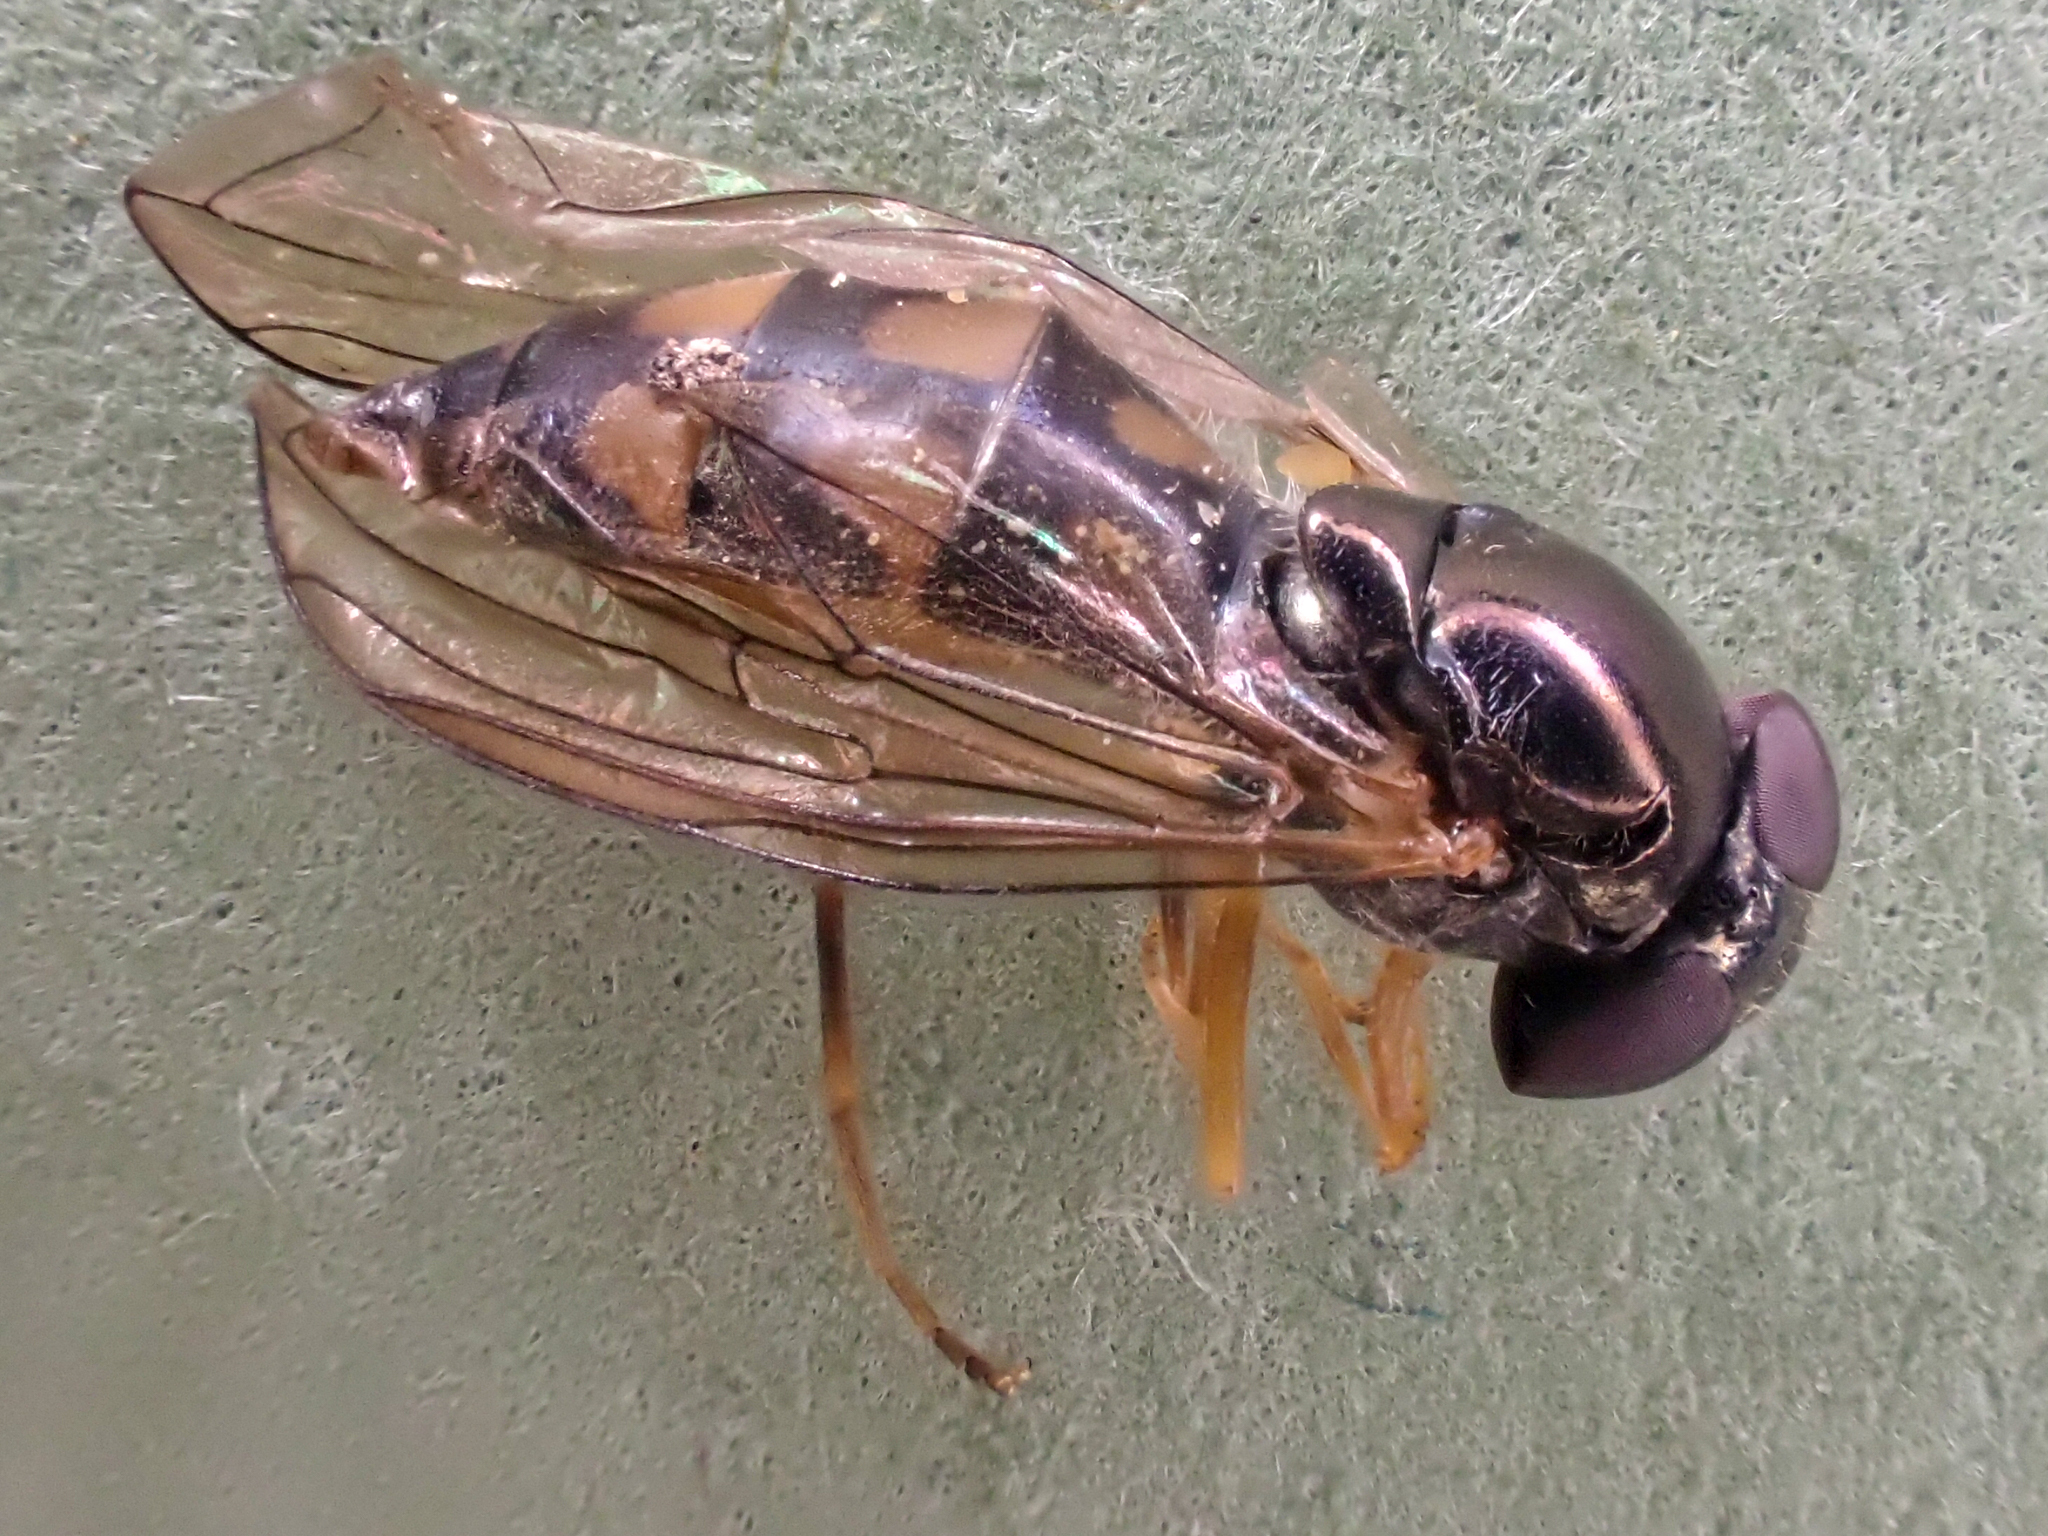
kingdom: Animalia
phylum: Arthropoda
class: Insecta
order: Diptera
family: Syrphidae
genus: Melanostoma
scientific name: Melanostoma mellina
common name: Hover fly
